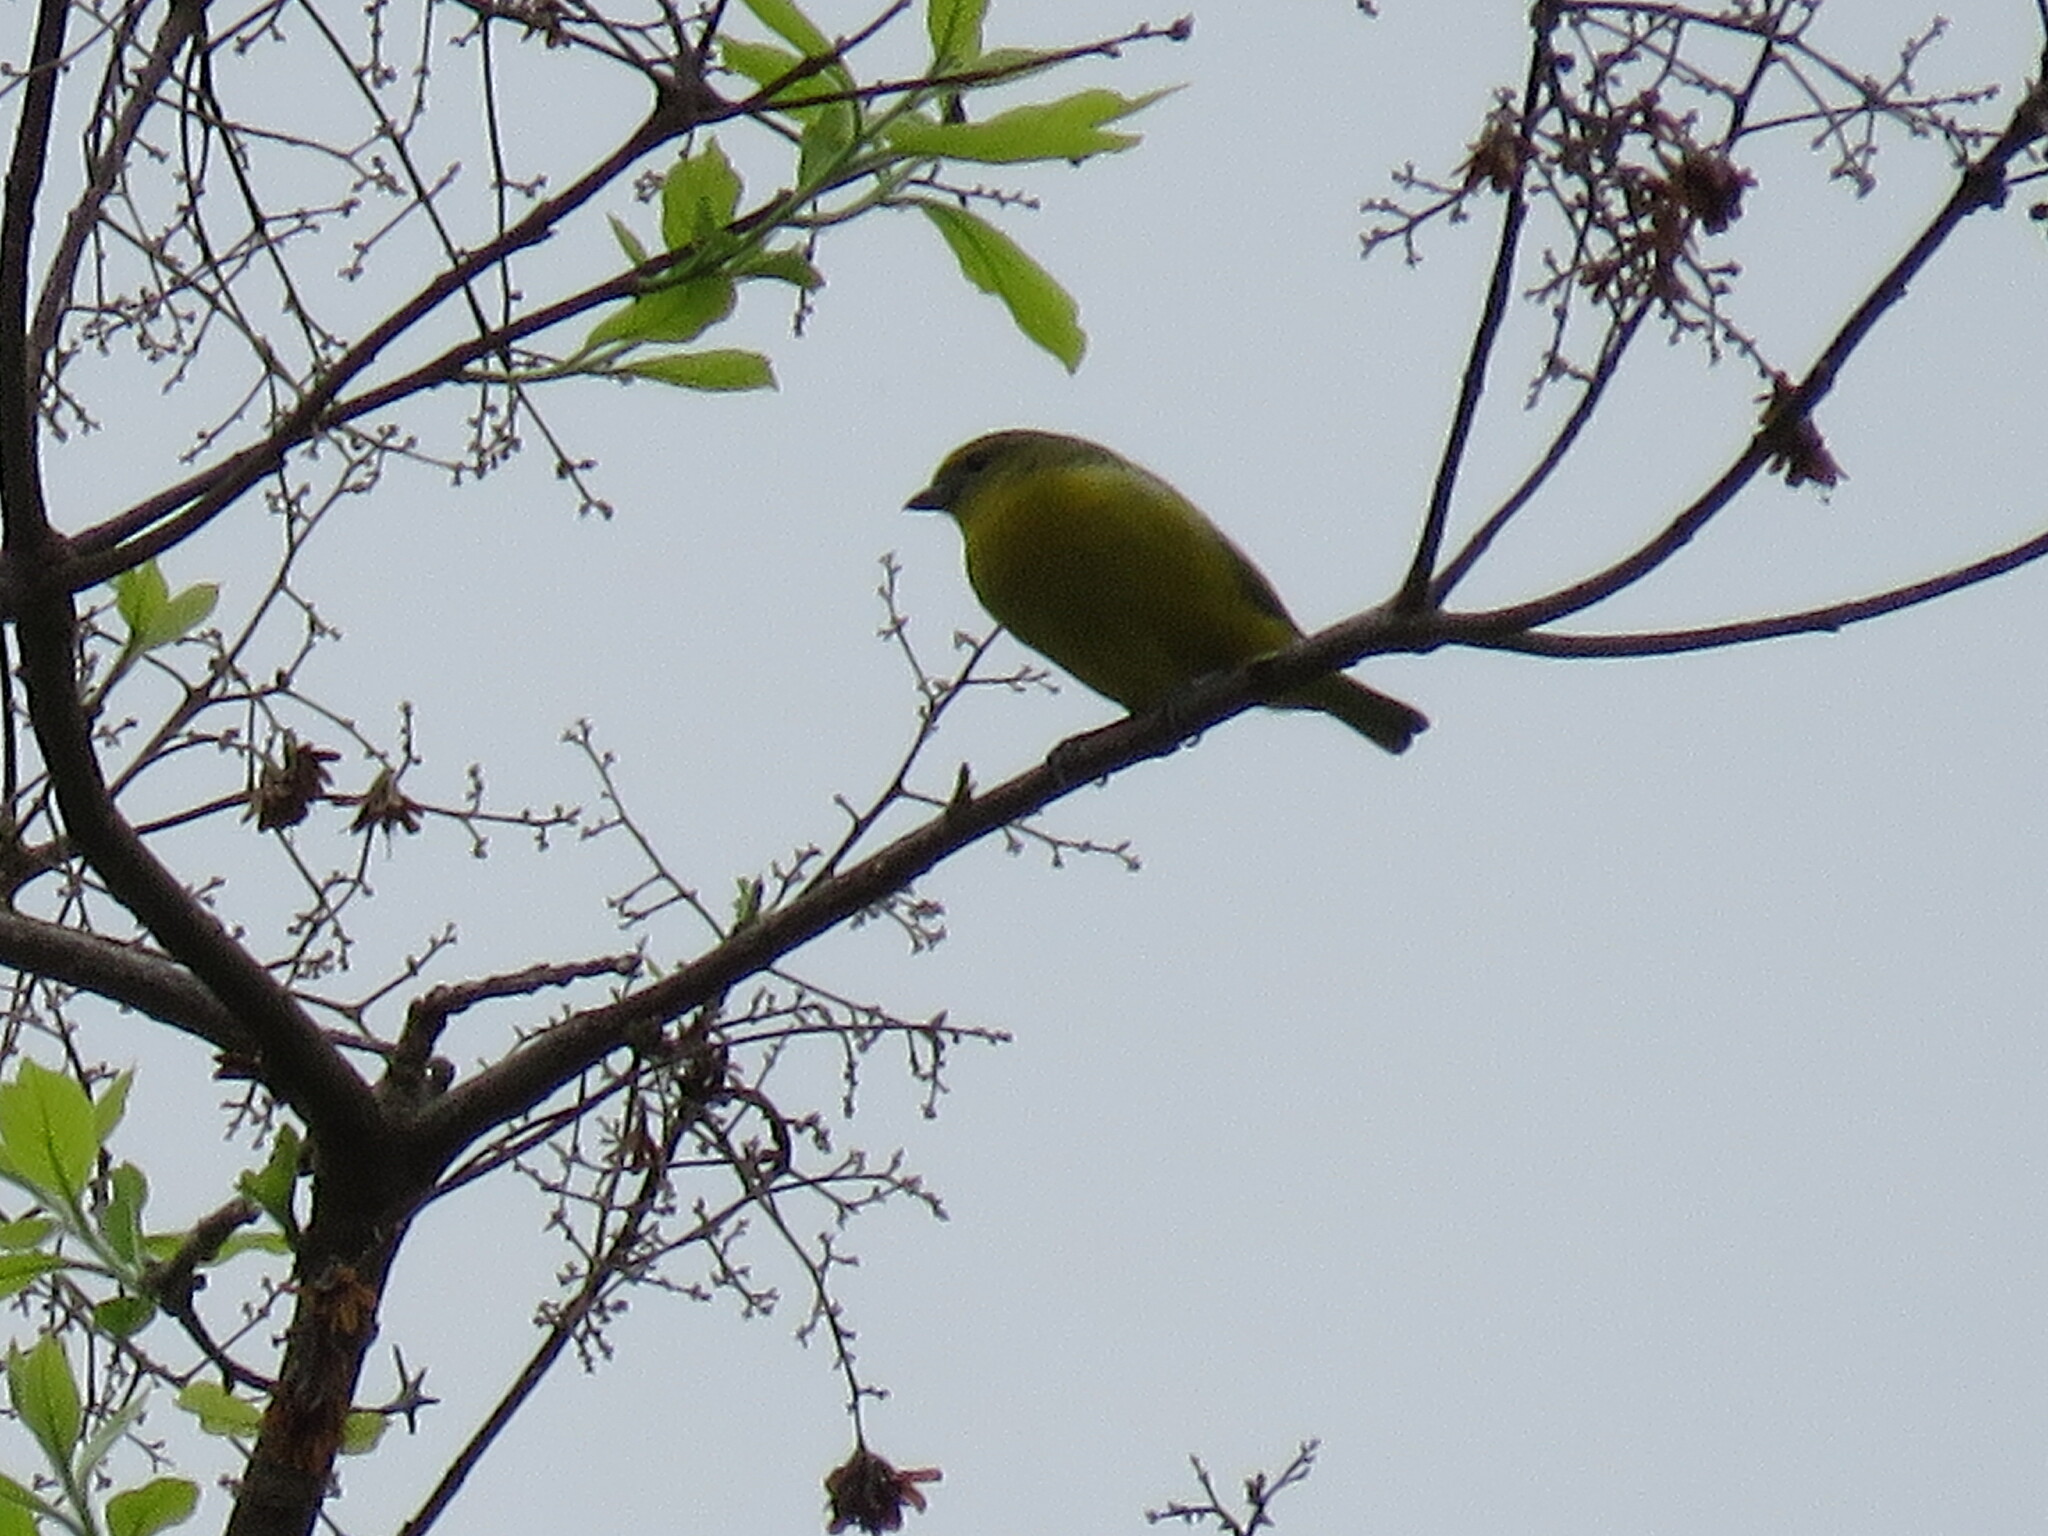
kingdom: Animalia
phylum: Chordata
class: Aves
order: Passeriformes
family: Fringillidae
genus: Euphonia
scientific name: Euphonia laniirostris
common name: Thick-billed euphonia
